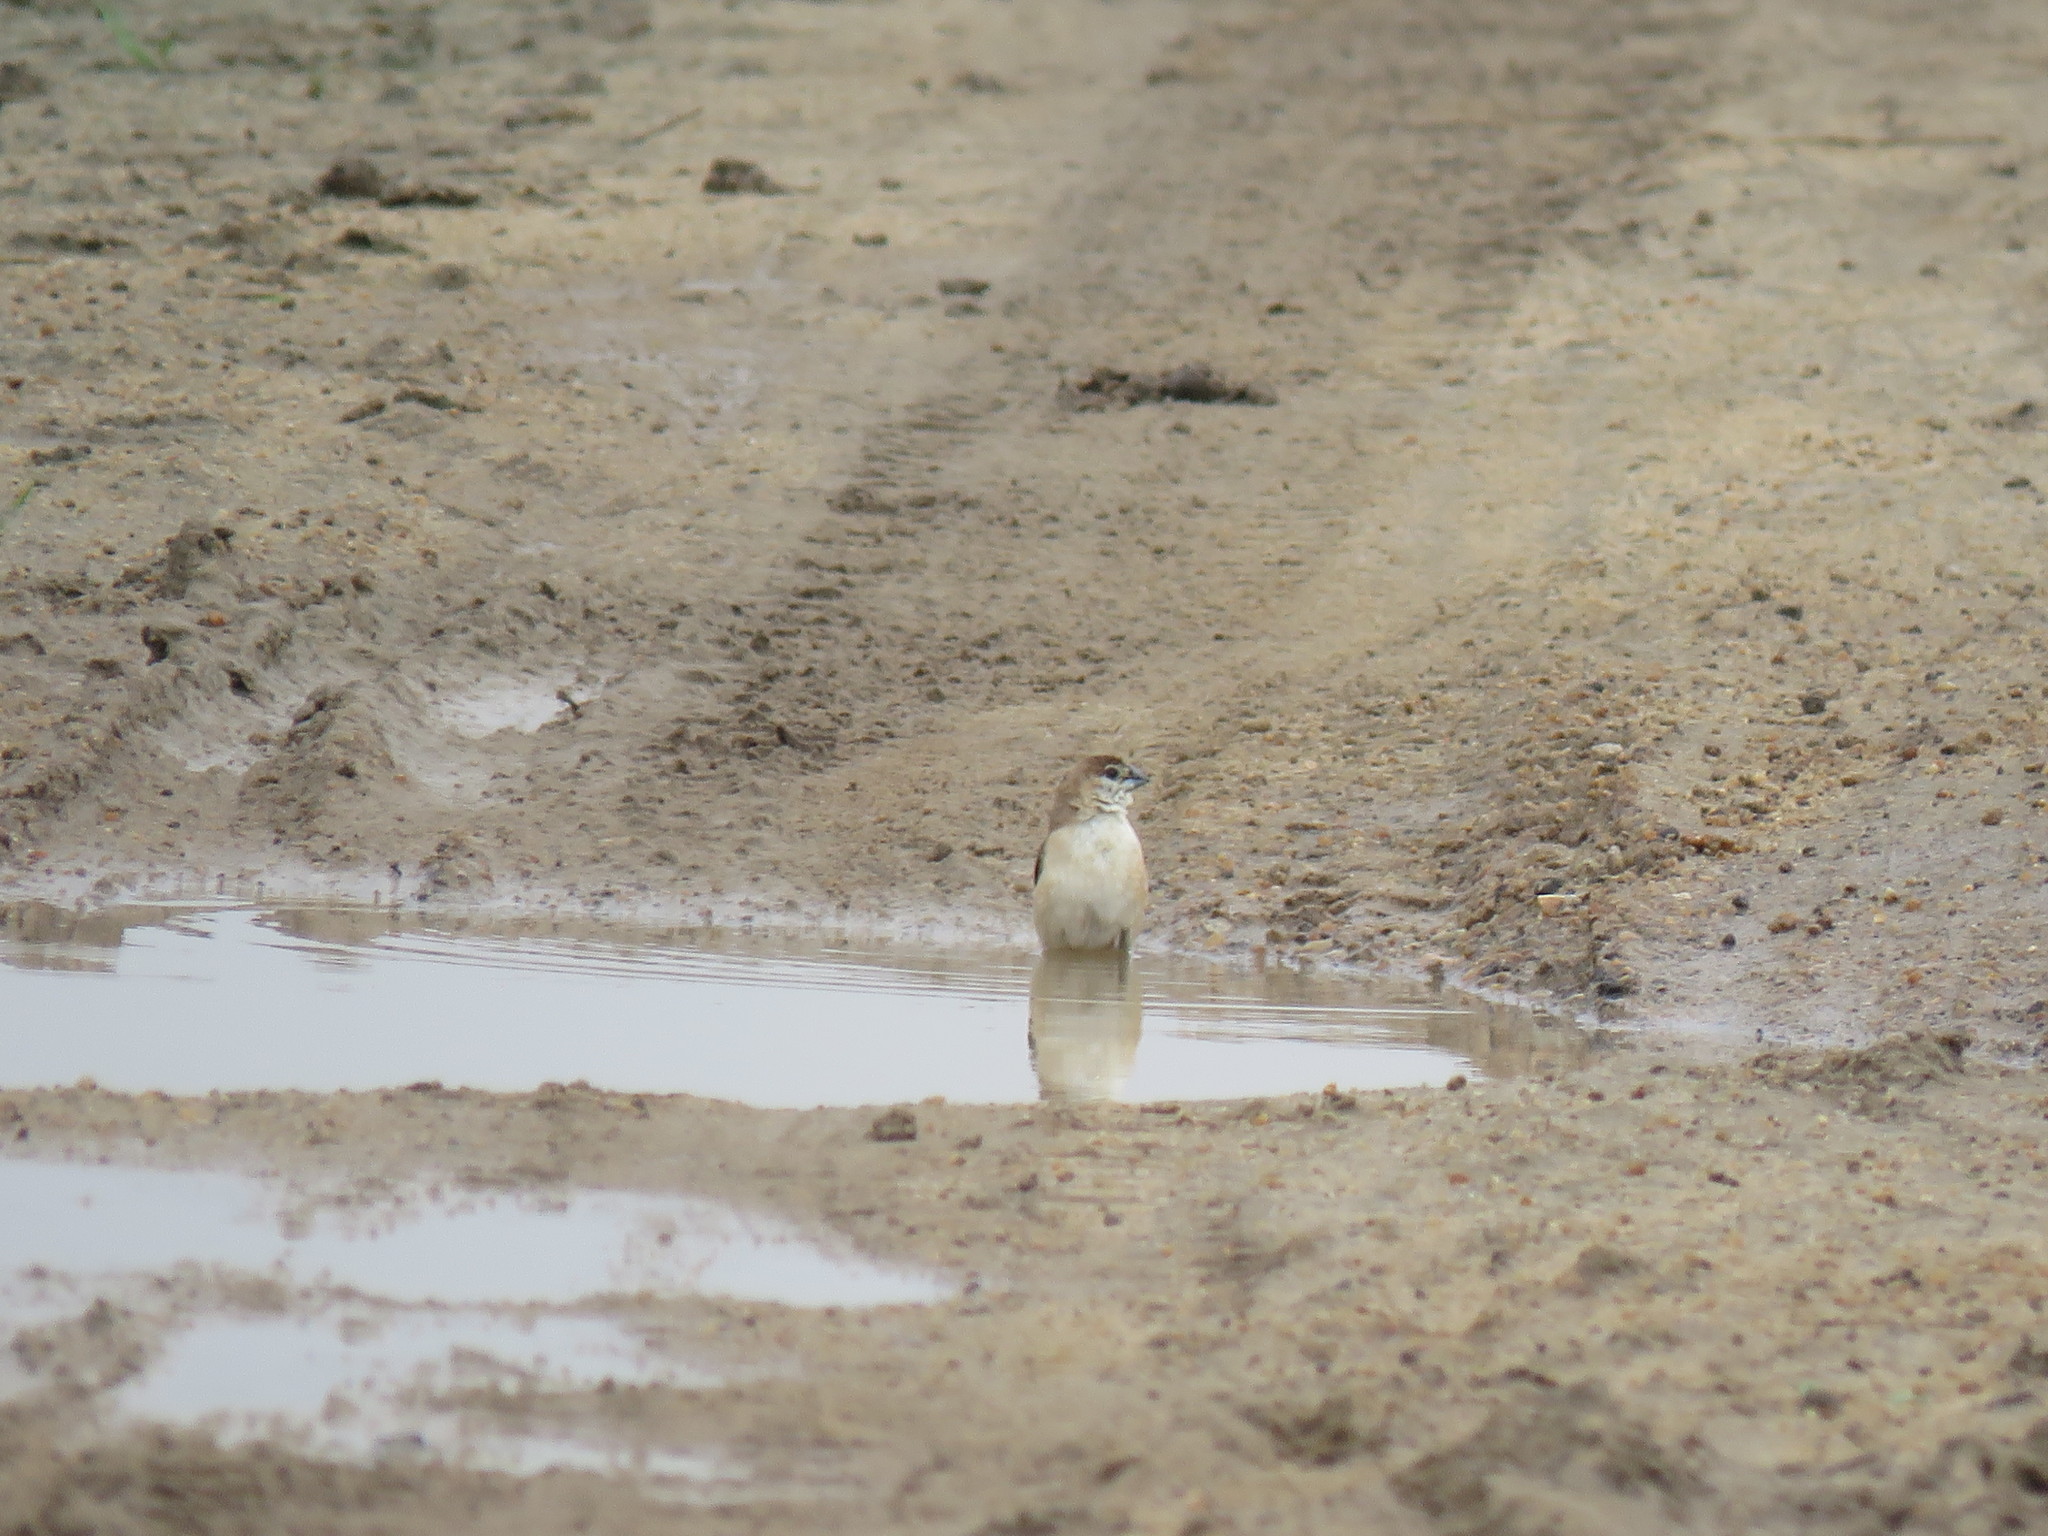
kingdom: Animalia
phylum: Chordata
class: Aves
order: Passeriformes
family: Estrildidae
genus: Euodice
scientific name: Euodice malabarica
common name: Indian silverbill
